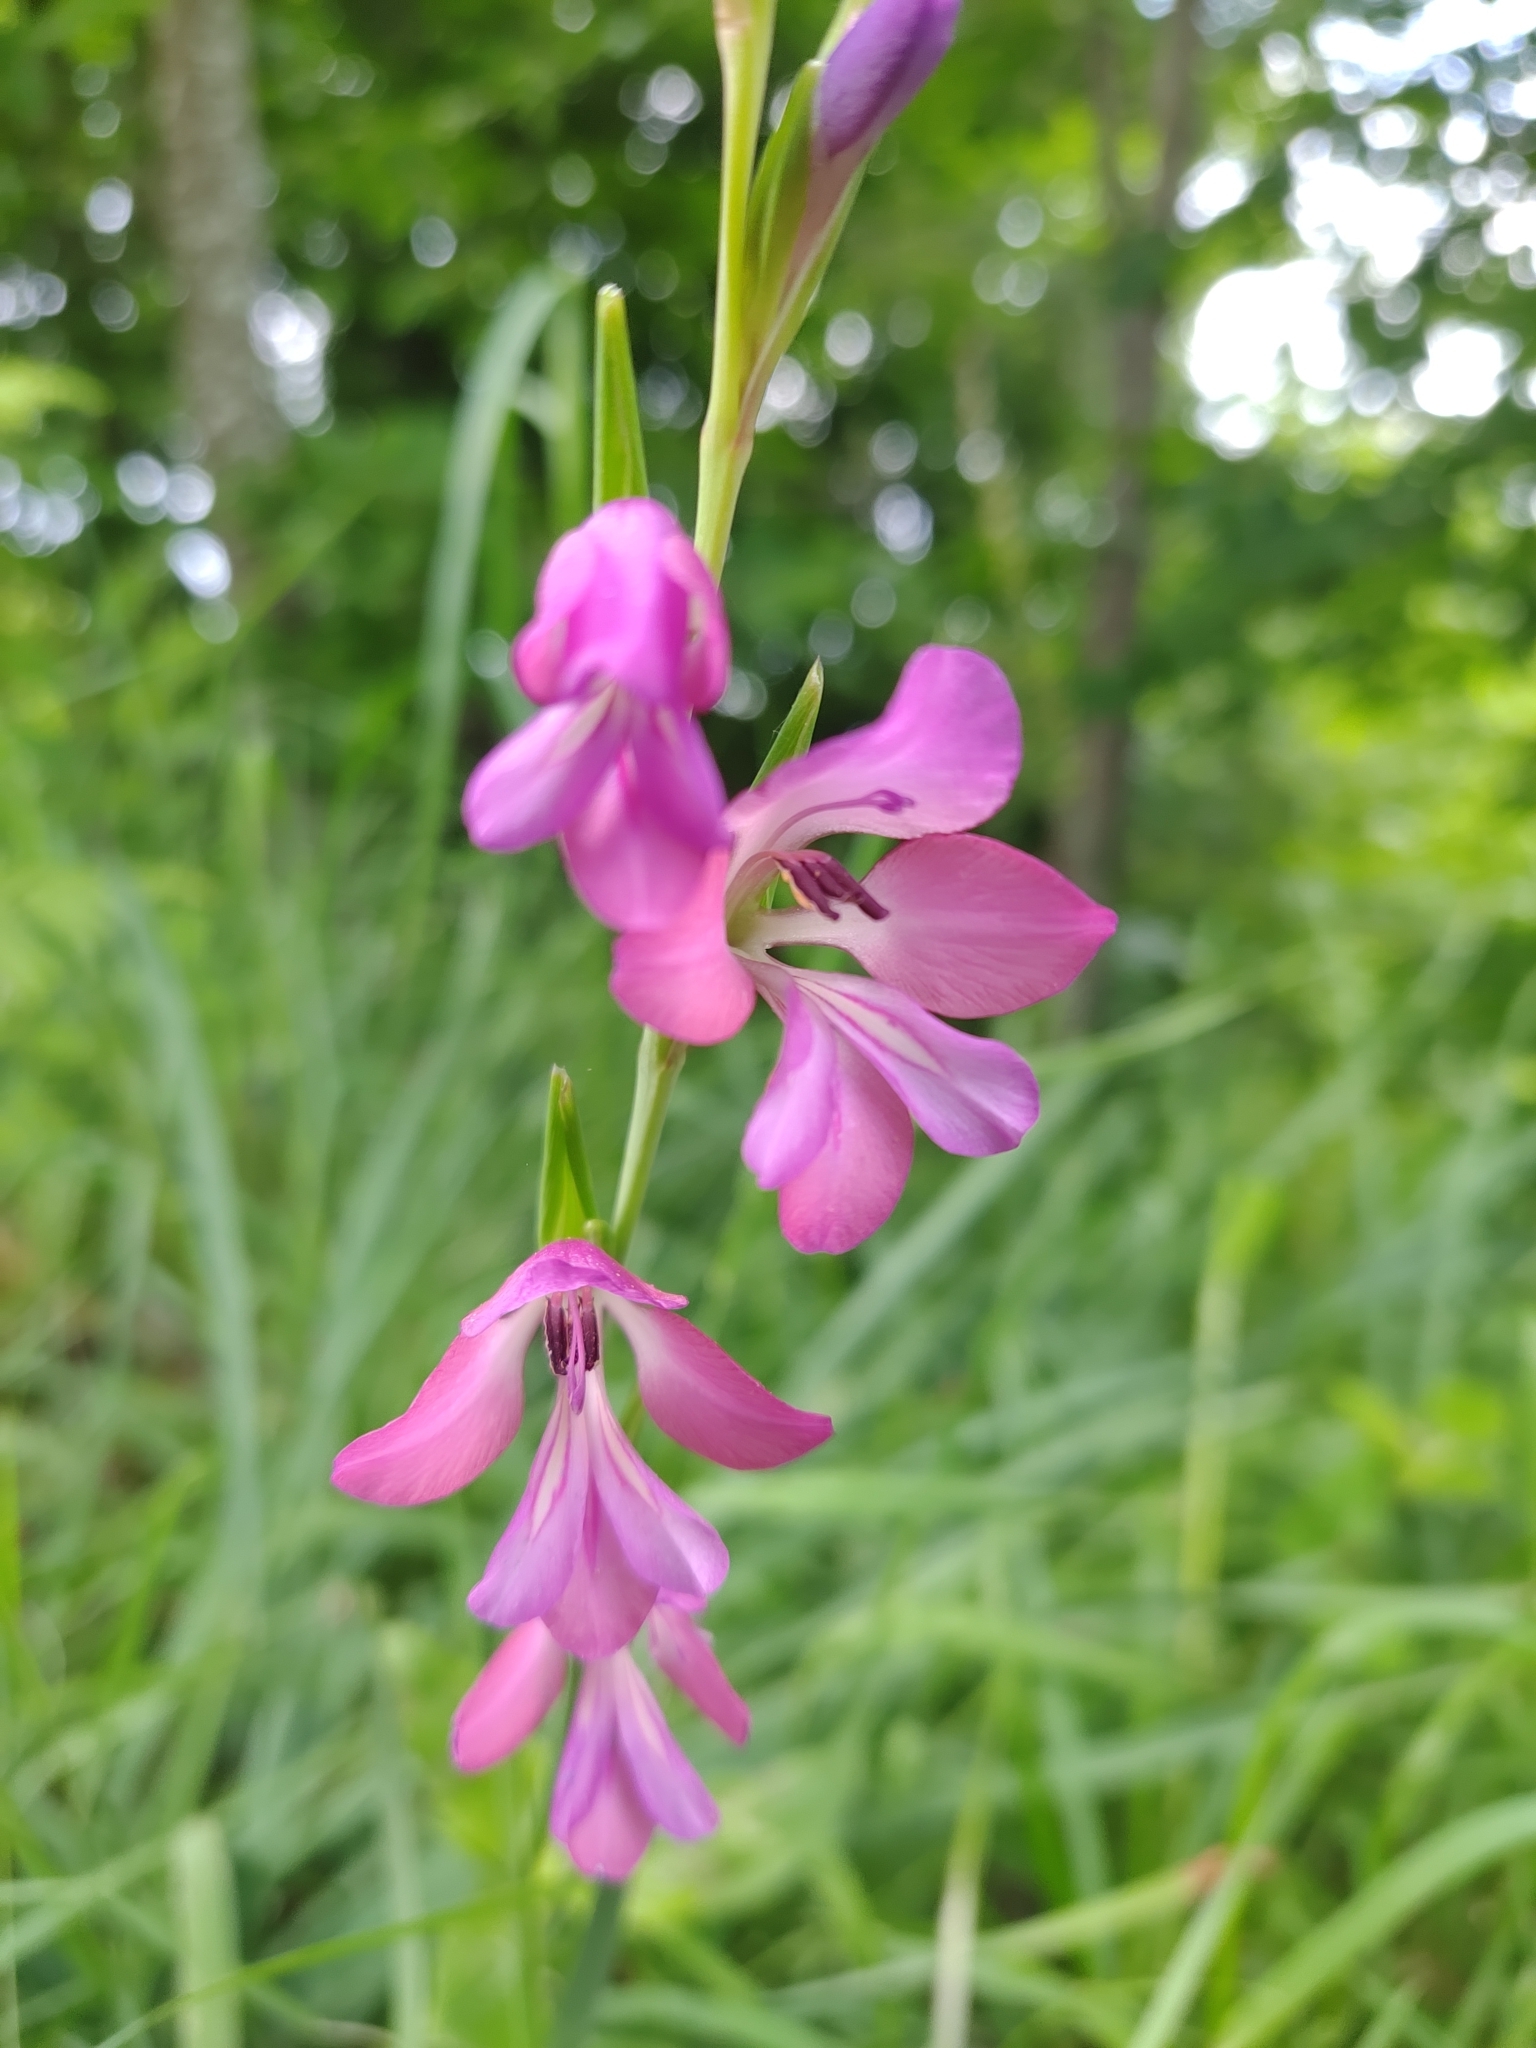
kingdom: Plantae
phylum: Tracheophyta
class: Liliopsida
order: Asparagales
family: Iridaceae
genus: Gladiolus
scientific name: Gladiolus illyricus
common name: Wild gladiolus
